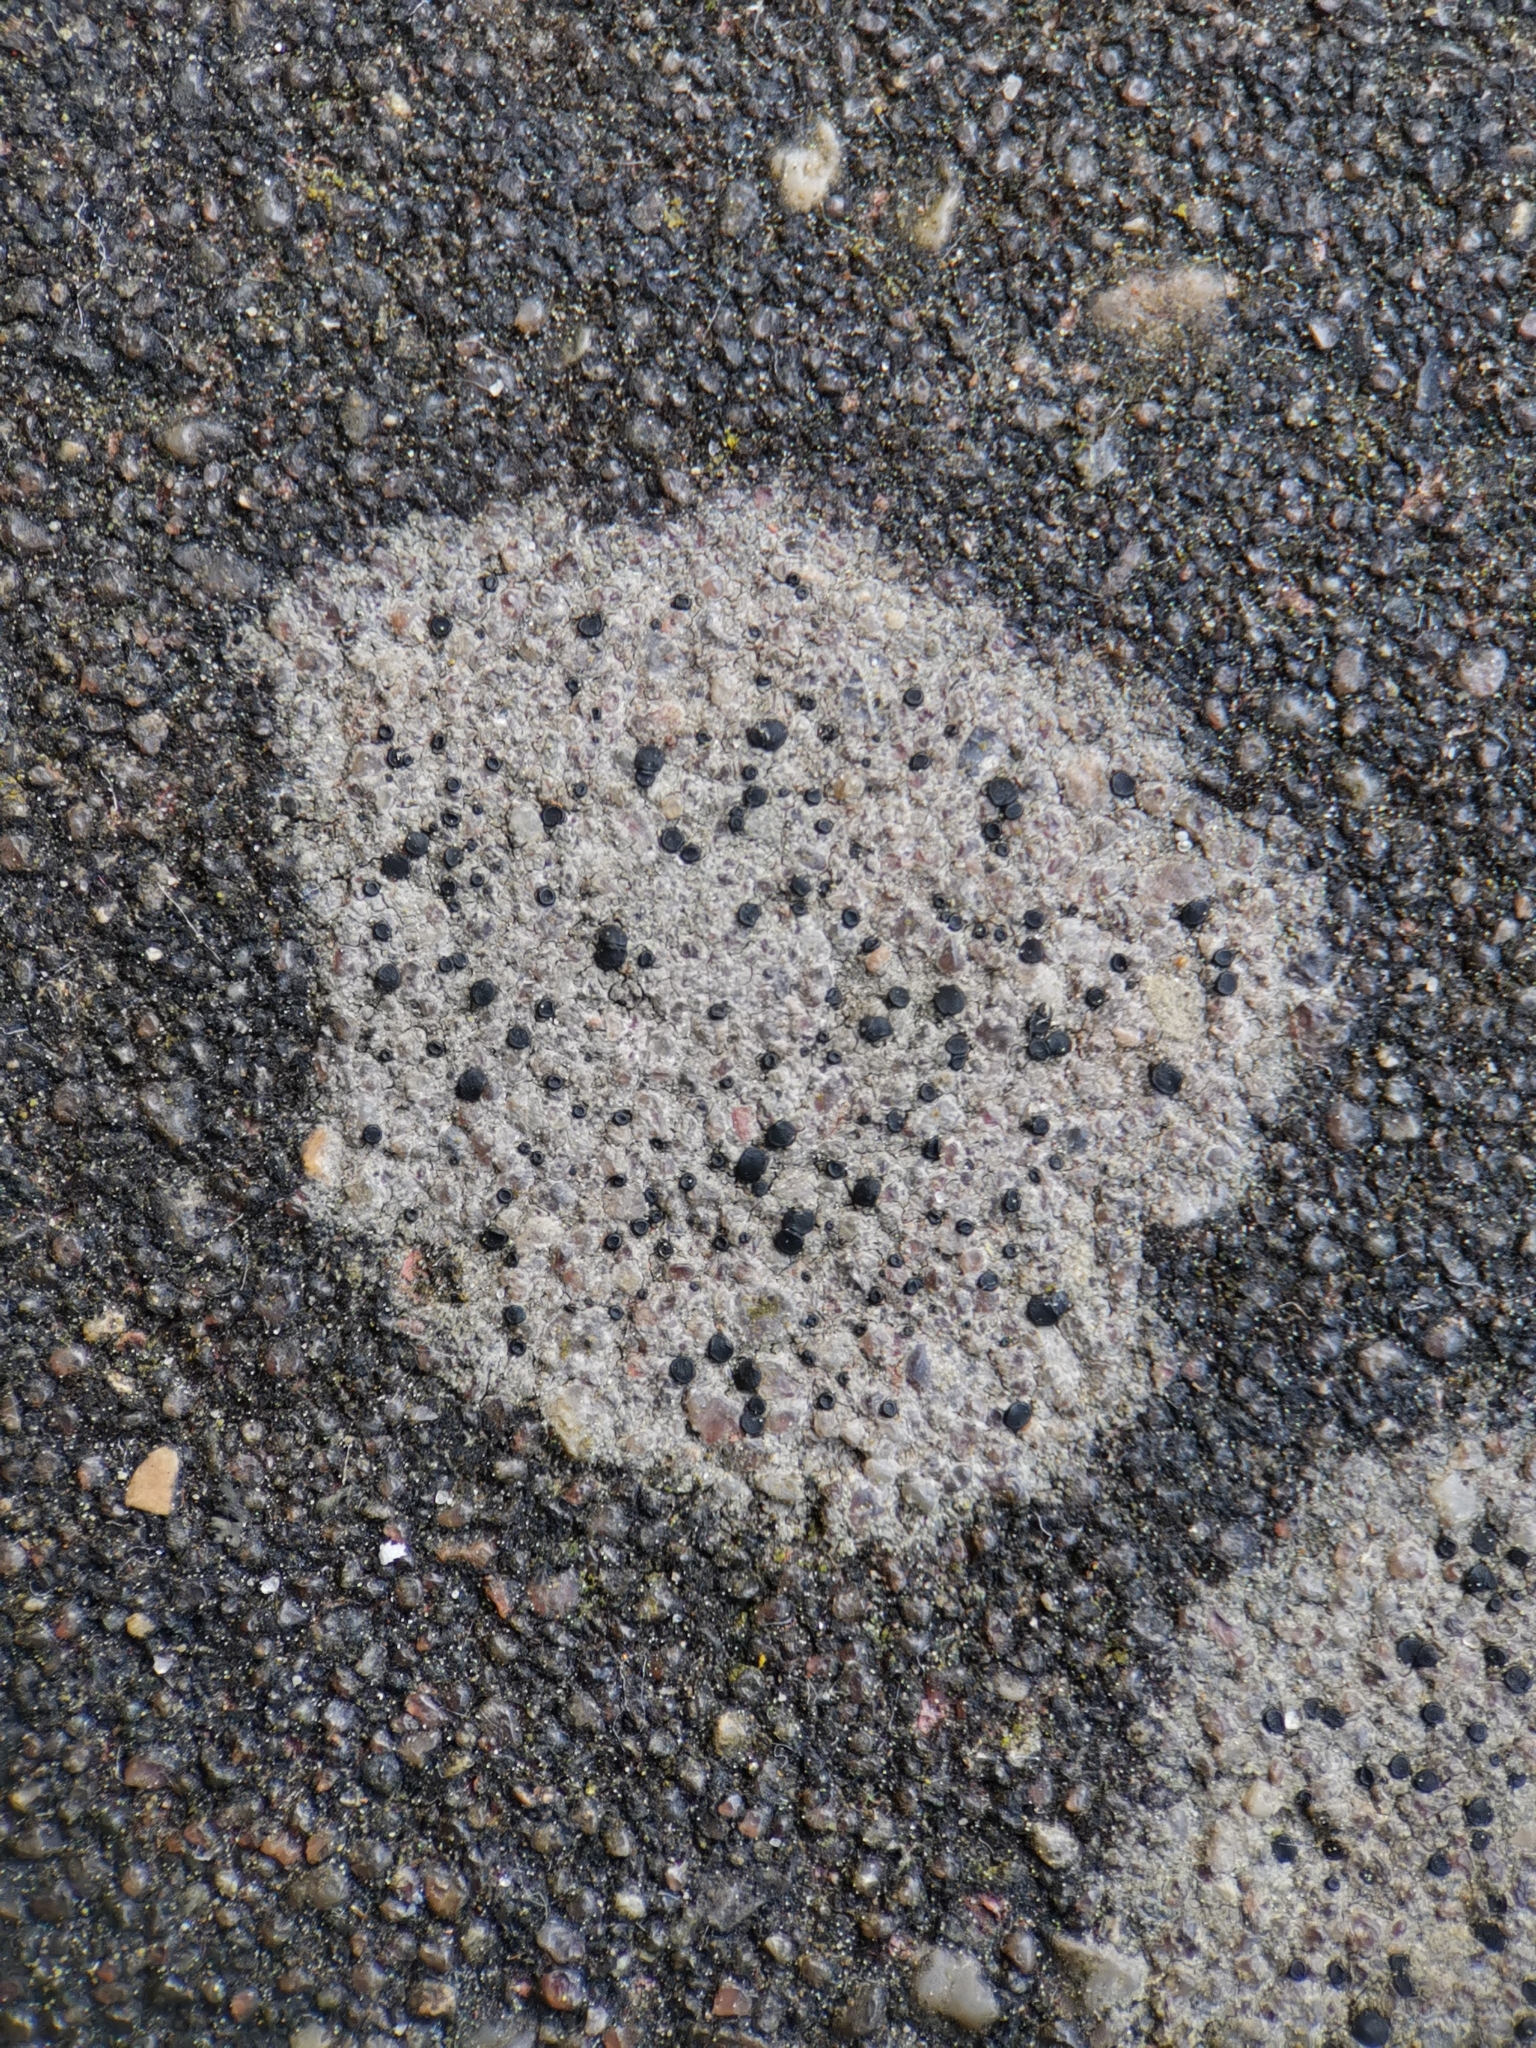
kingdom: Fungi
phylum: Ascomycota
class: Lecanoromycetes
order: Lecanorales
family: Lecanoraceae
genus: Lecidella
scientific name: Lecidella stigmatea
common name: Limestone disc lichen
